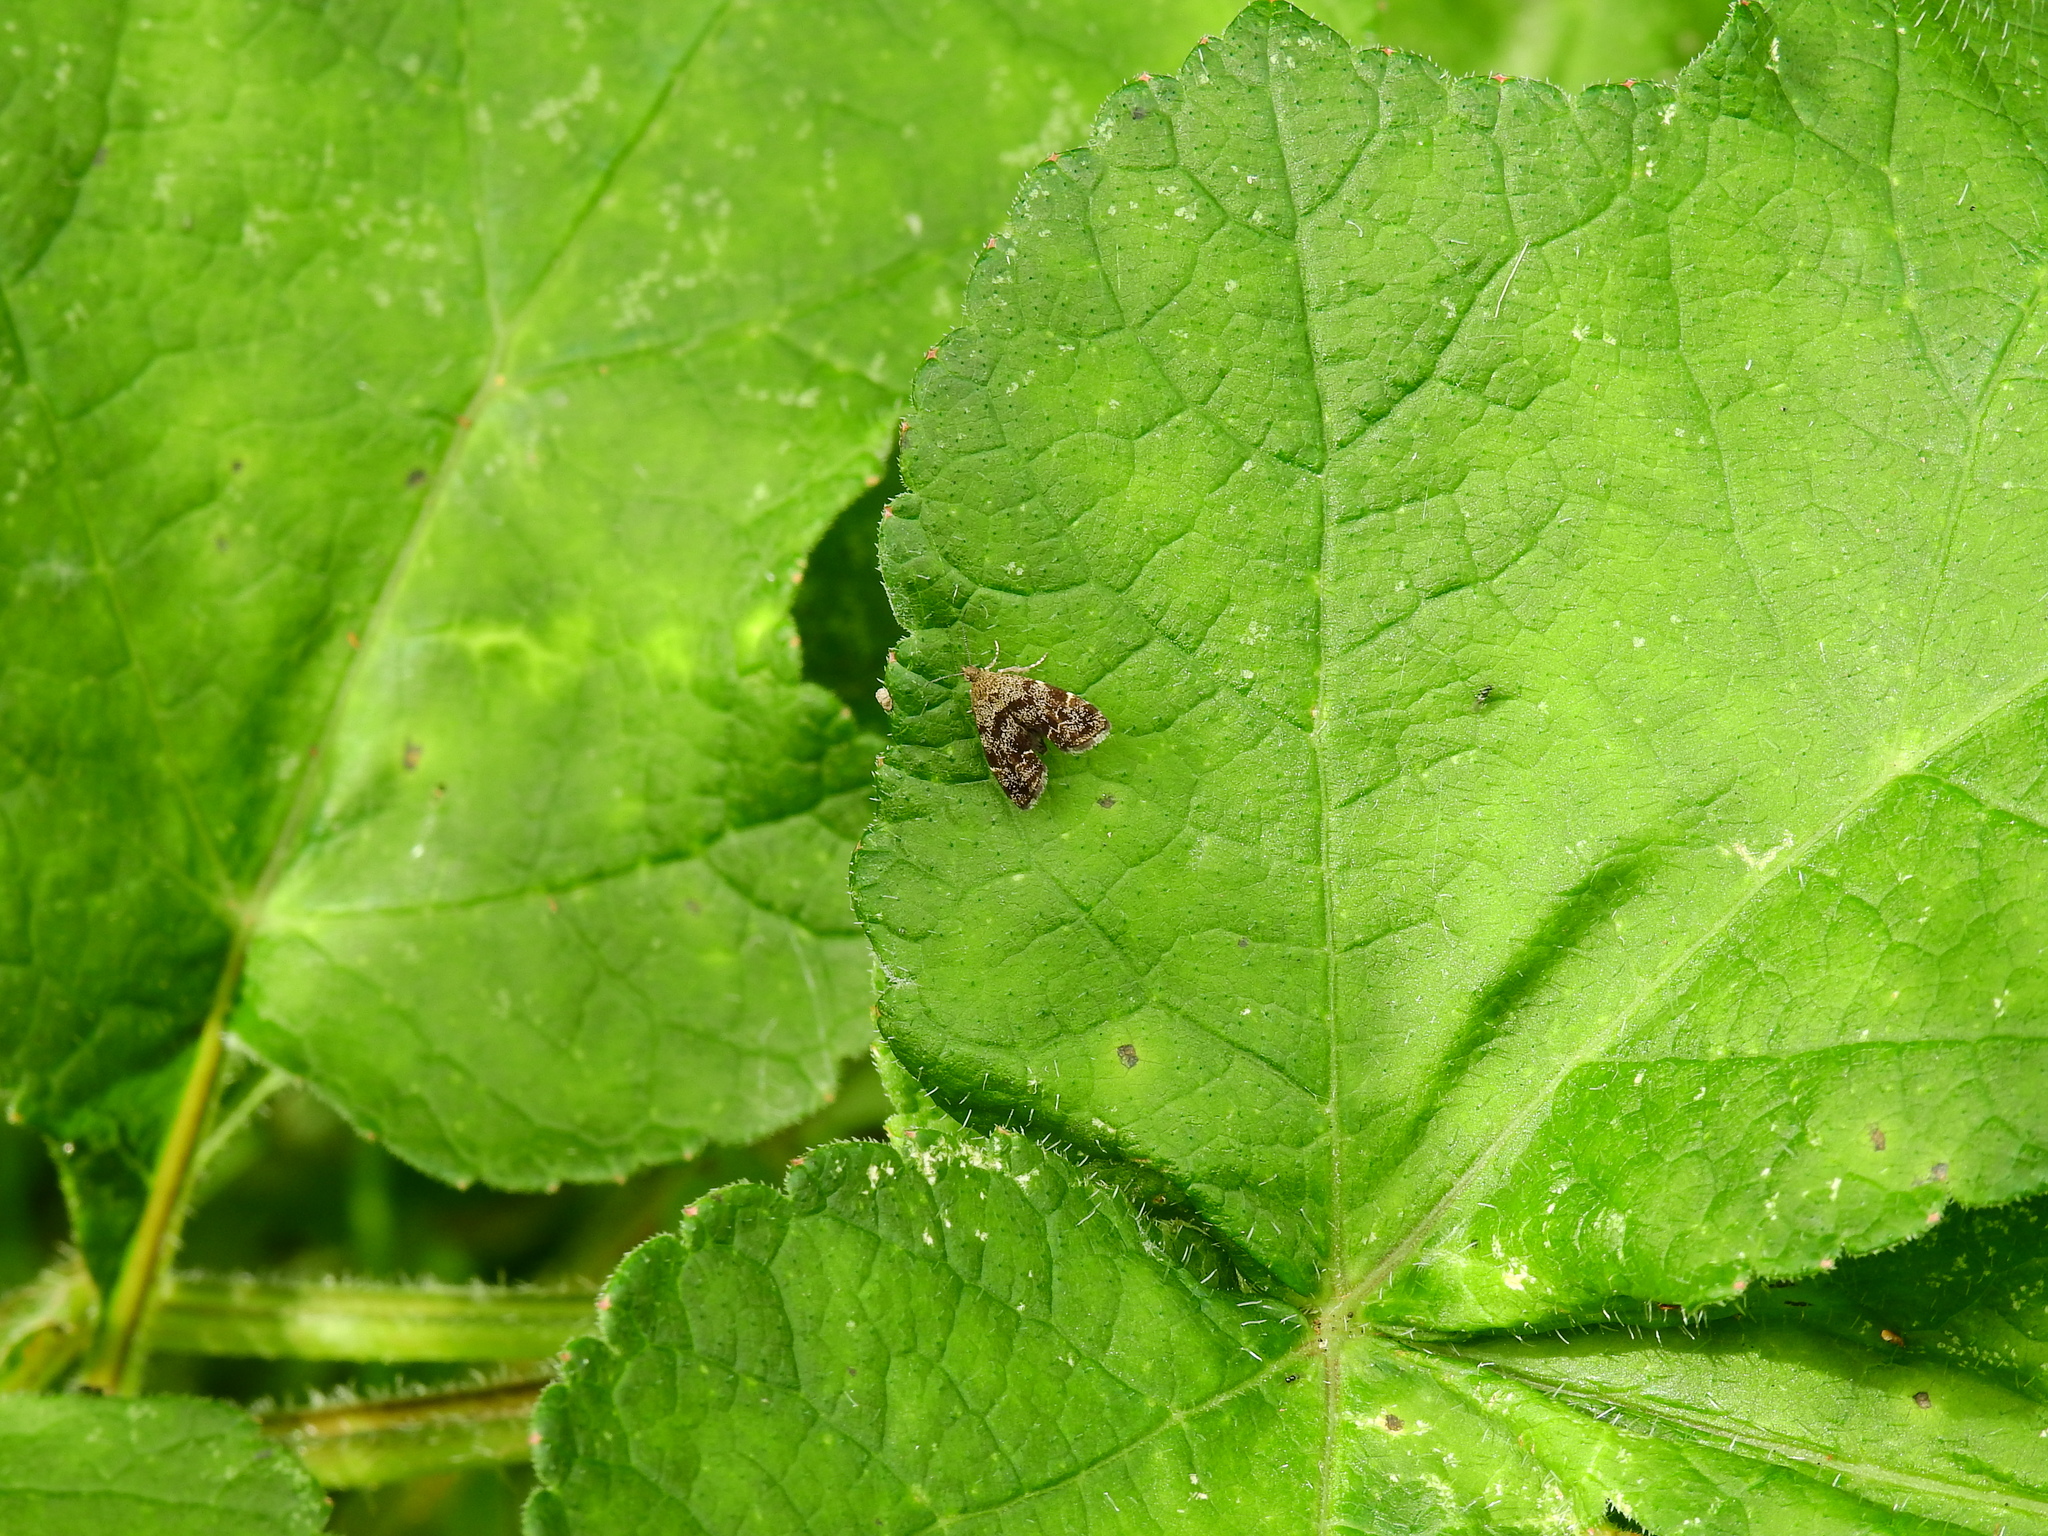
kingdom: Animalia
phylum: Arthropoda
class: Insecta
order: Lepidoptera
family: Choreutidae
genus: Anthophila
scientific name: Anthophila fabriciana
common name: Nettle-tap
